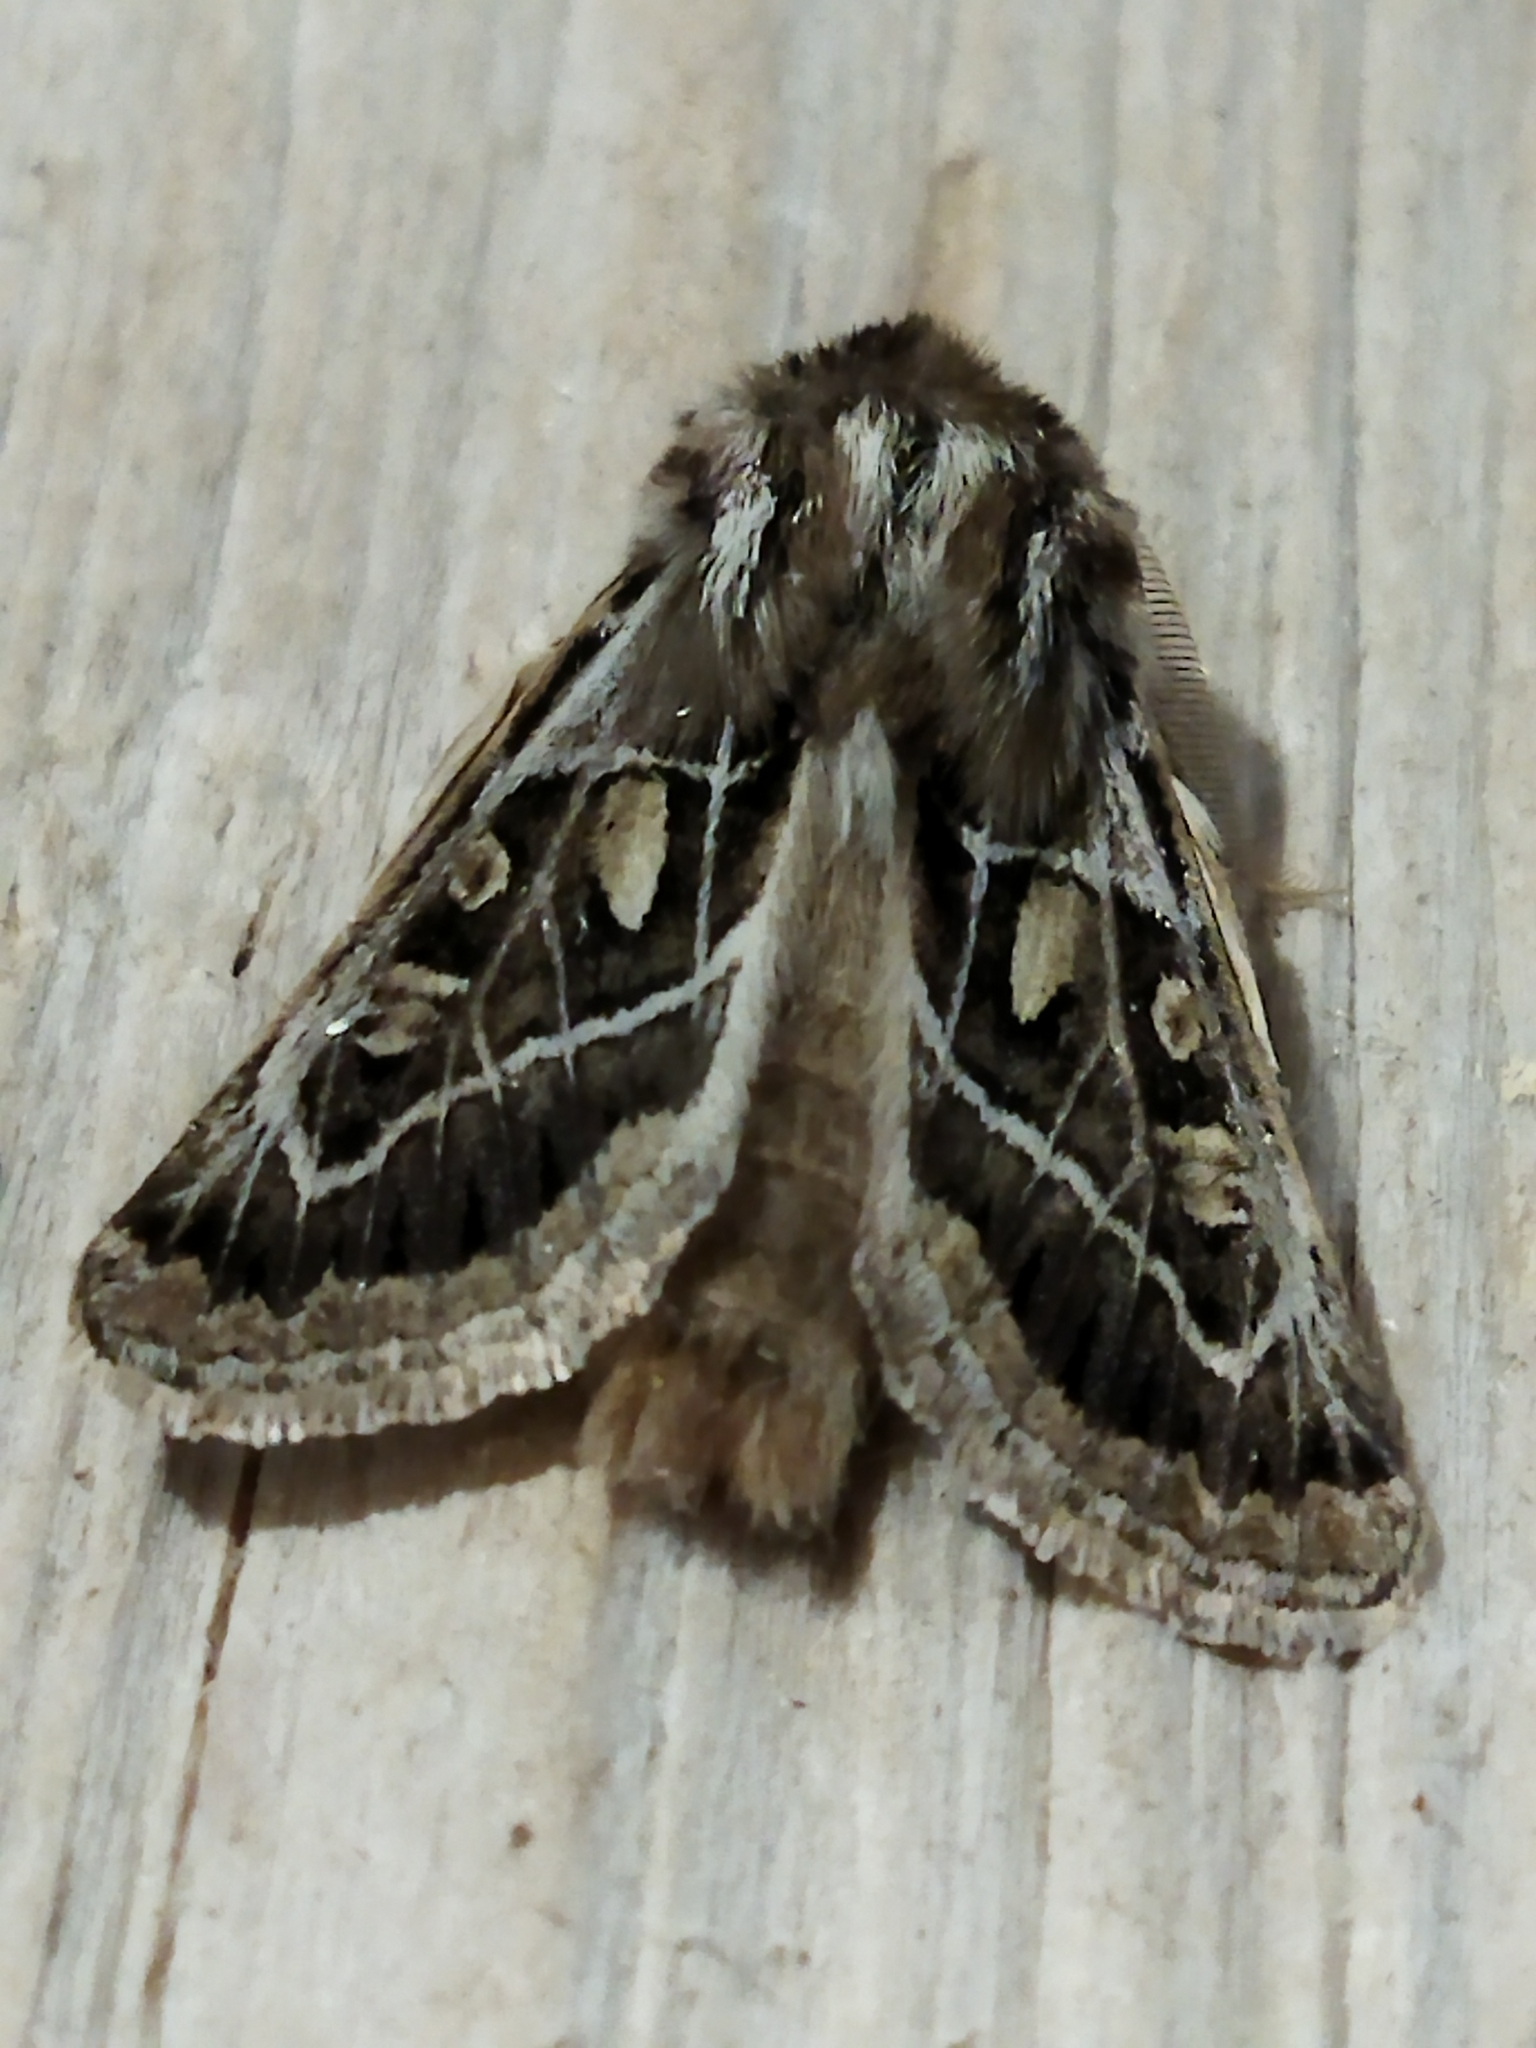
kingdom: Animalia
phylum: Arthropoda
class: Insecta
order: Lepidoptera
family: Noctuidae
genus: Ulochlaena
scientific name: Ulochlaena hirta
